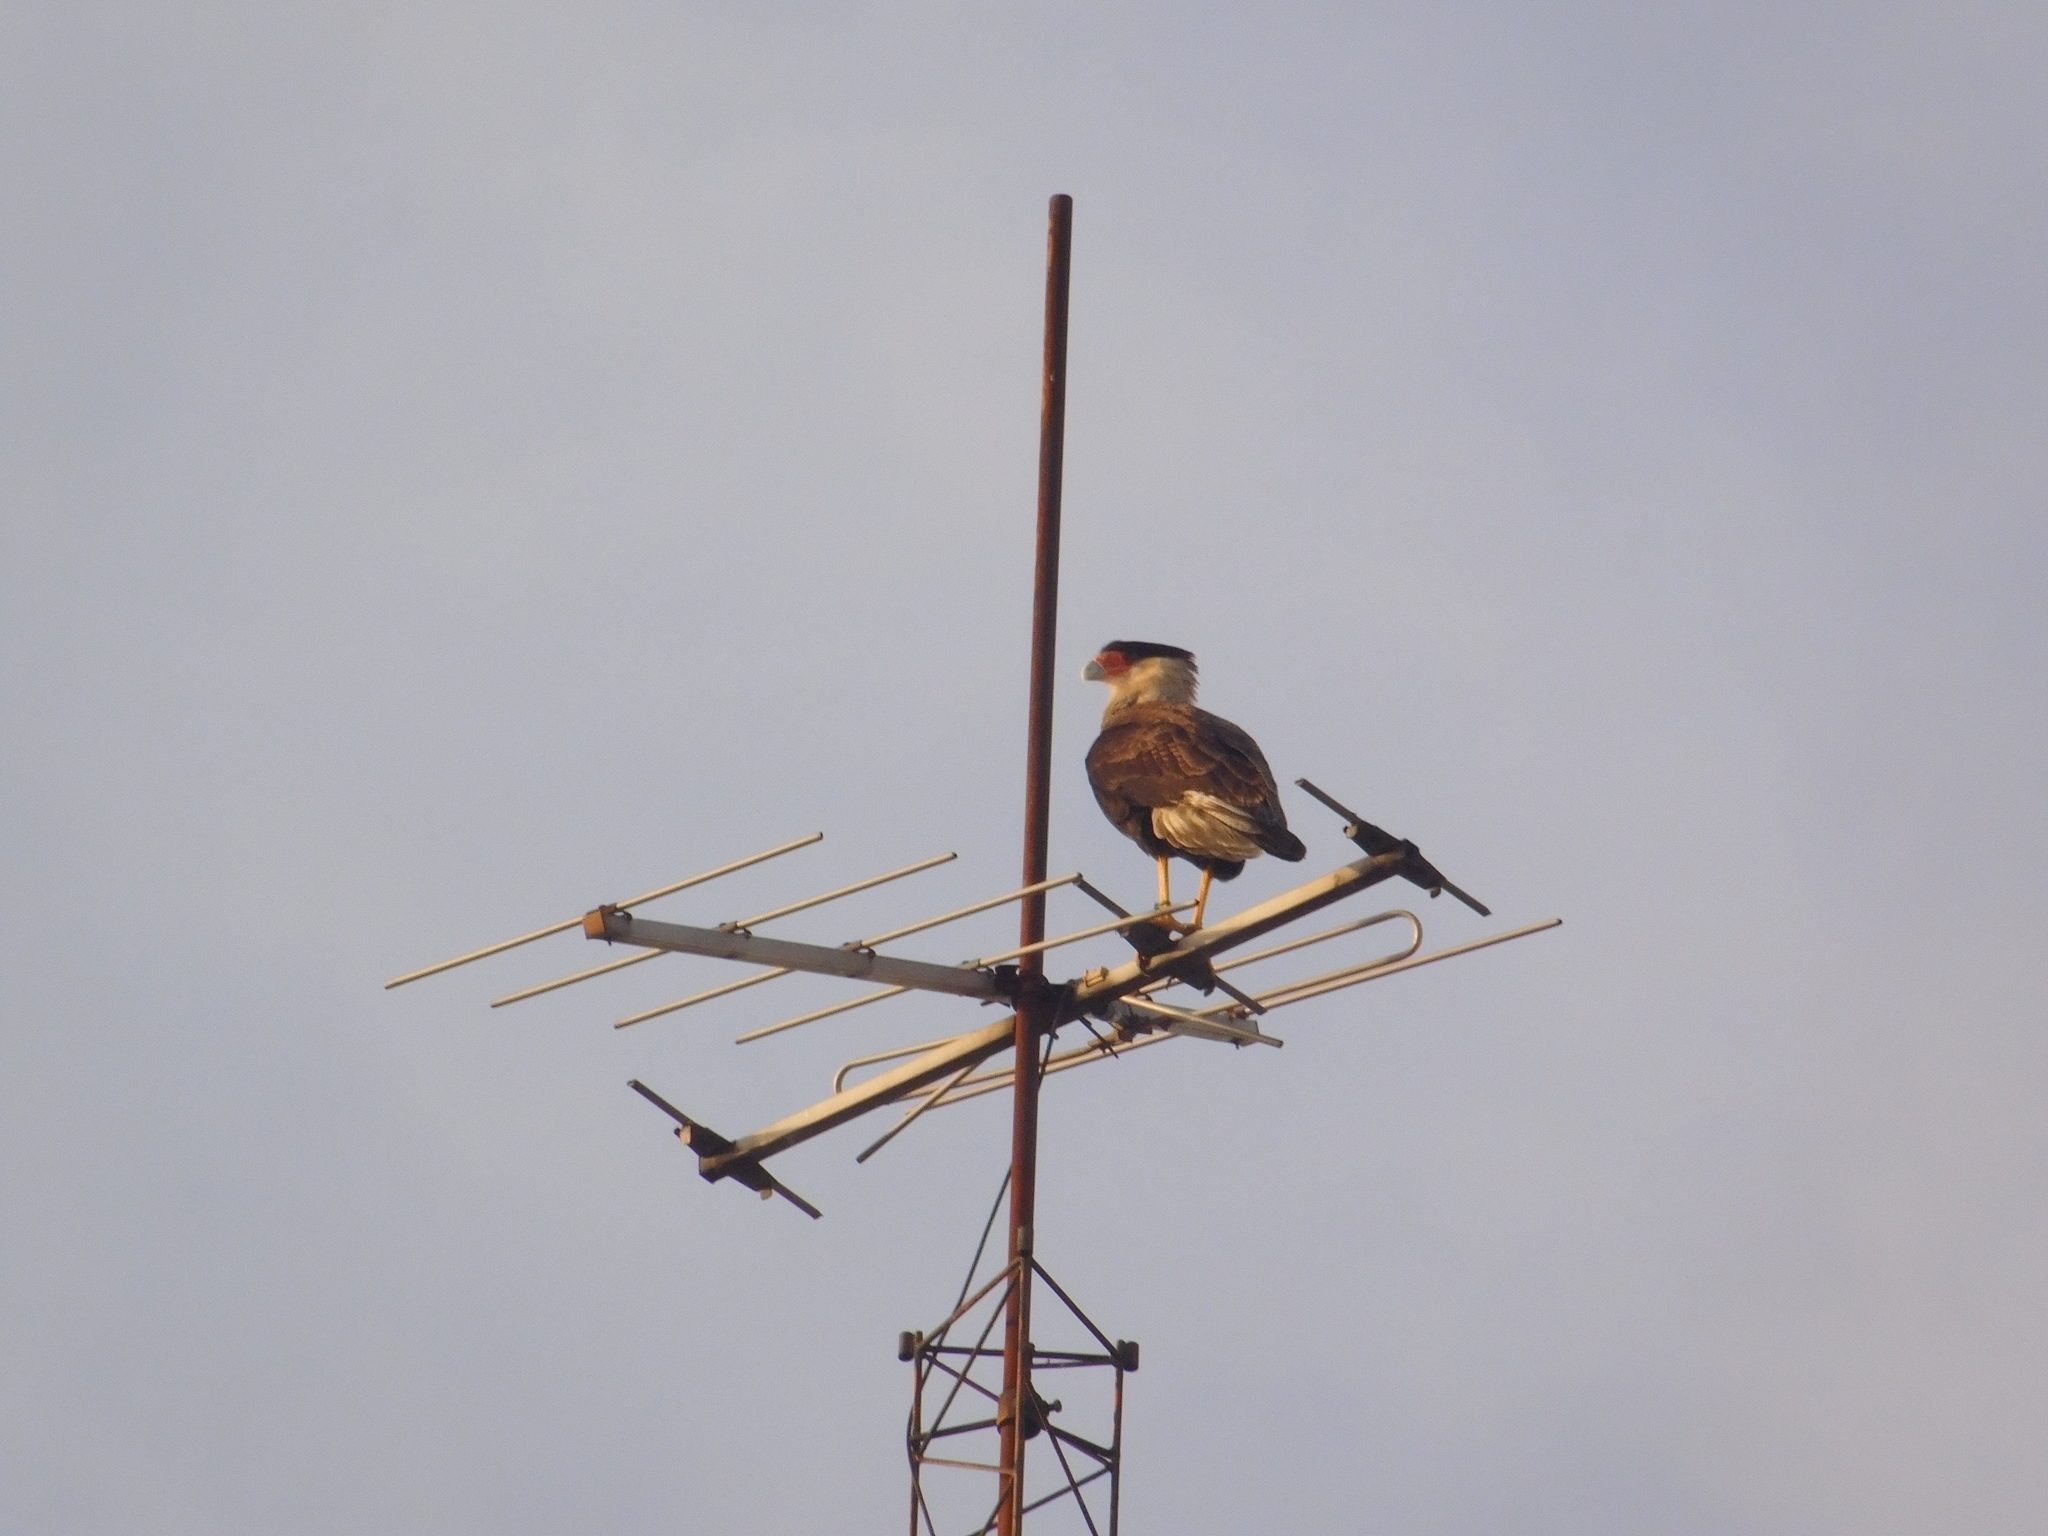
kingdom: Animalia
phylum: Chordata
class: Aves
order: Falconiformes
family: Falconidae
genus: Caracara
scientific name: Caracara plancus
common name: Southern caracara
